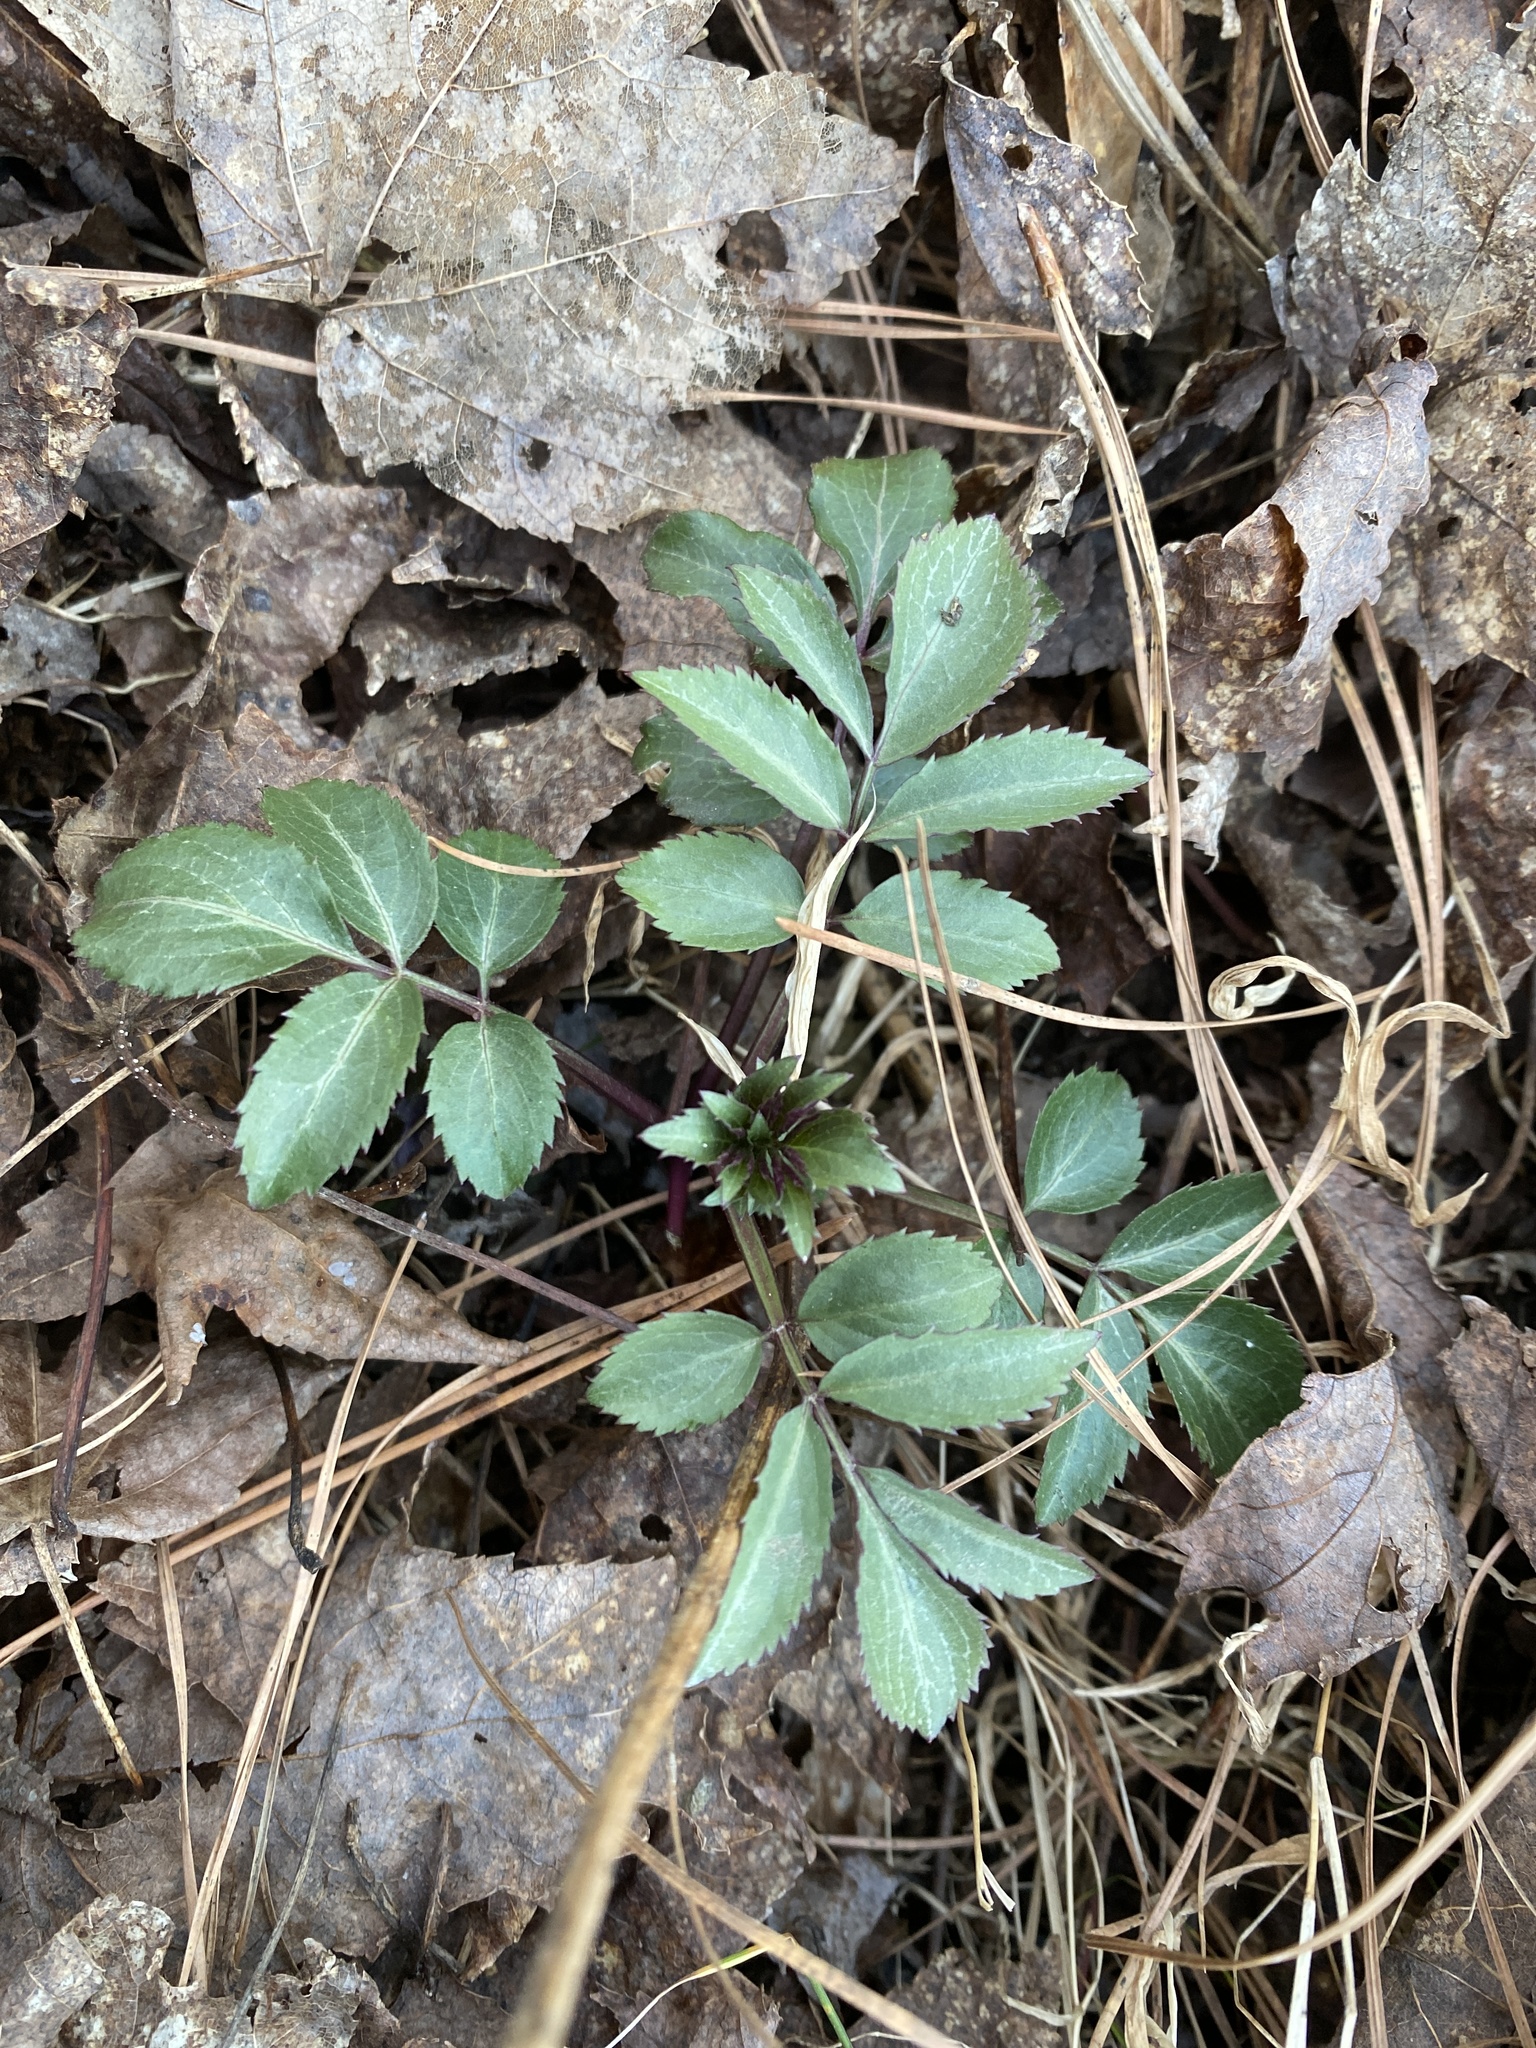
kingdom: Plantae
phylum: Tracheophyta
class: Magnoliopsida
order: Dipsacales
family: Viburnaceae
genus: Sambucus
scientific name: Sambucus canadensis
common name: American elder
